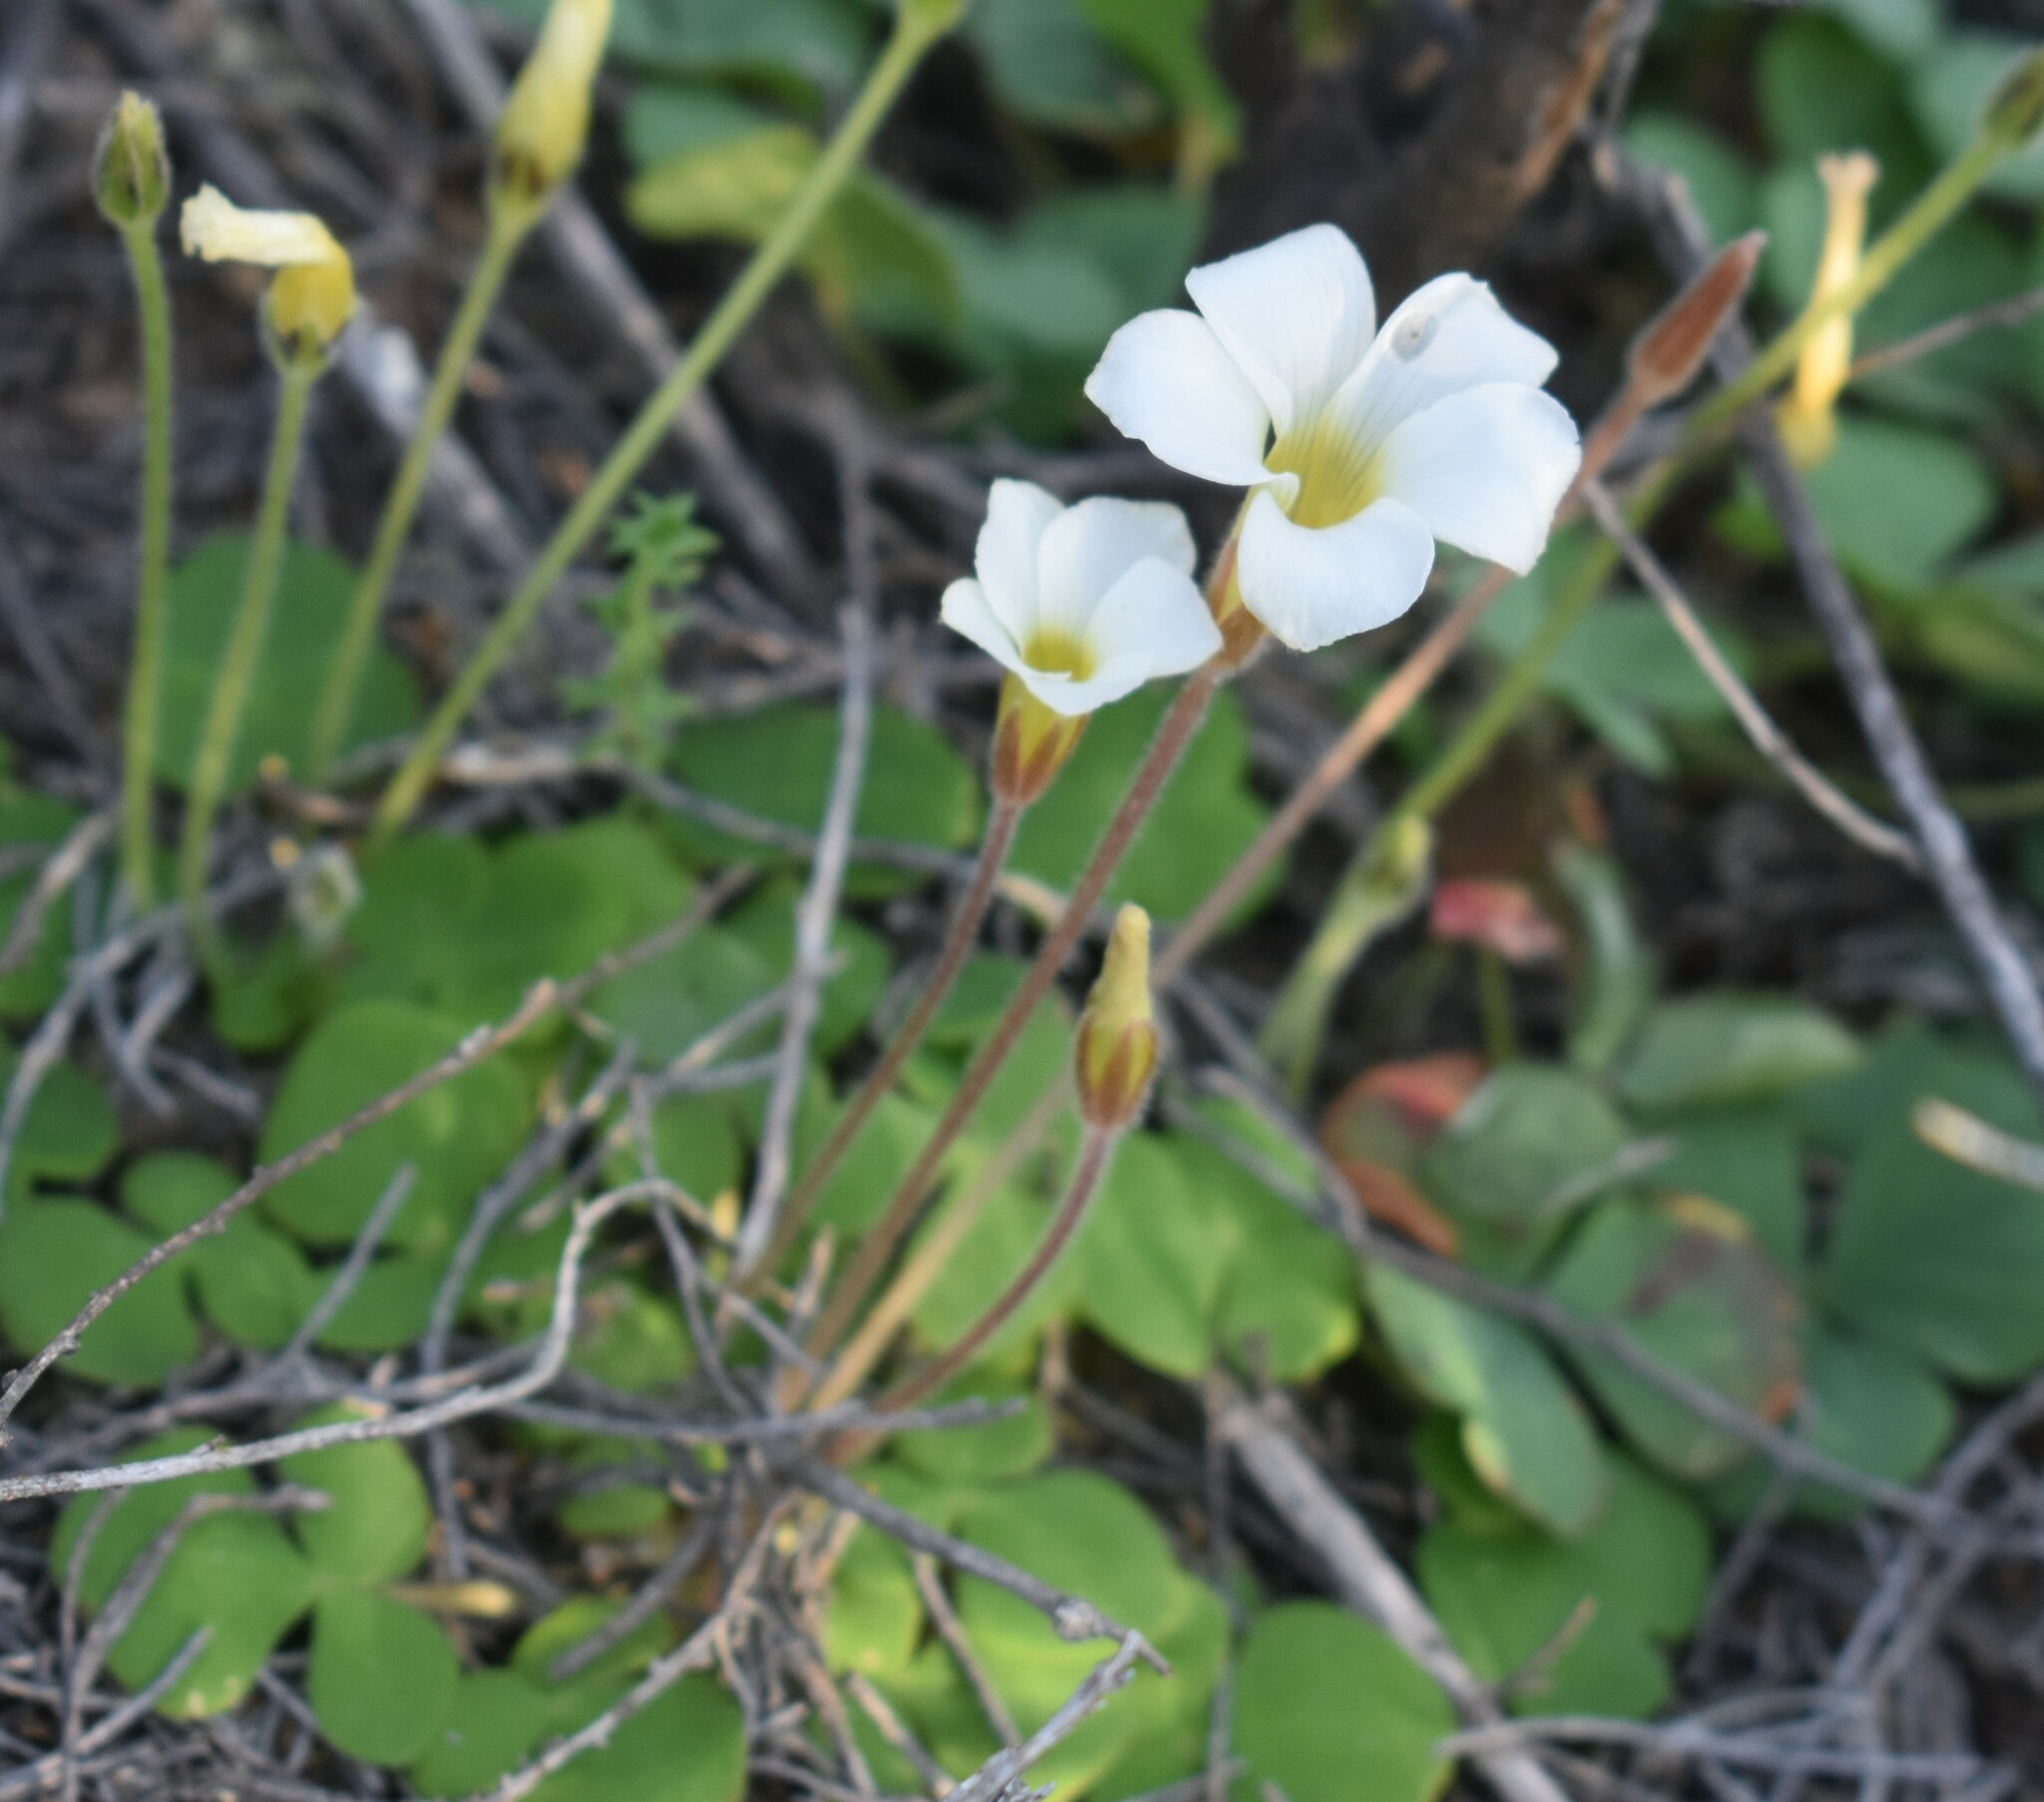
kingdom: Plantae
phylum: Tracheophyta
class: Magnoliopsida
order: Oxalidales
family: Oxalidaceae
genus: Oxalis
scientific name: Oxalis algoensis
